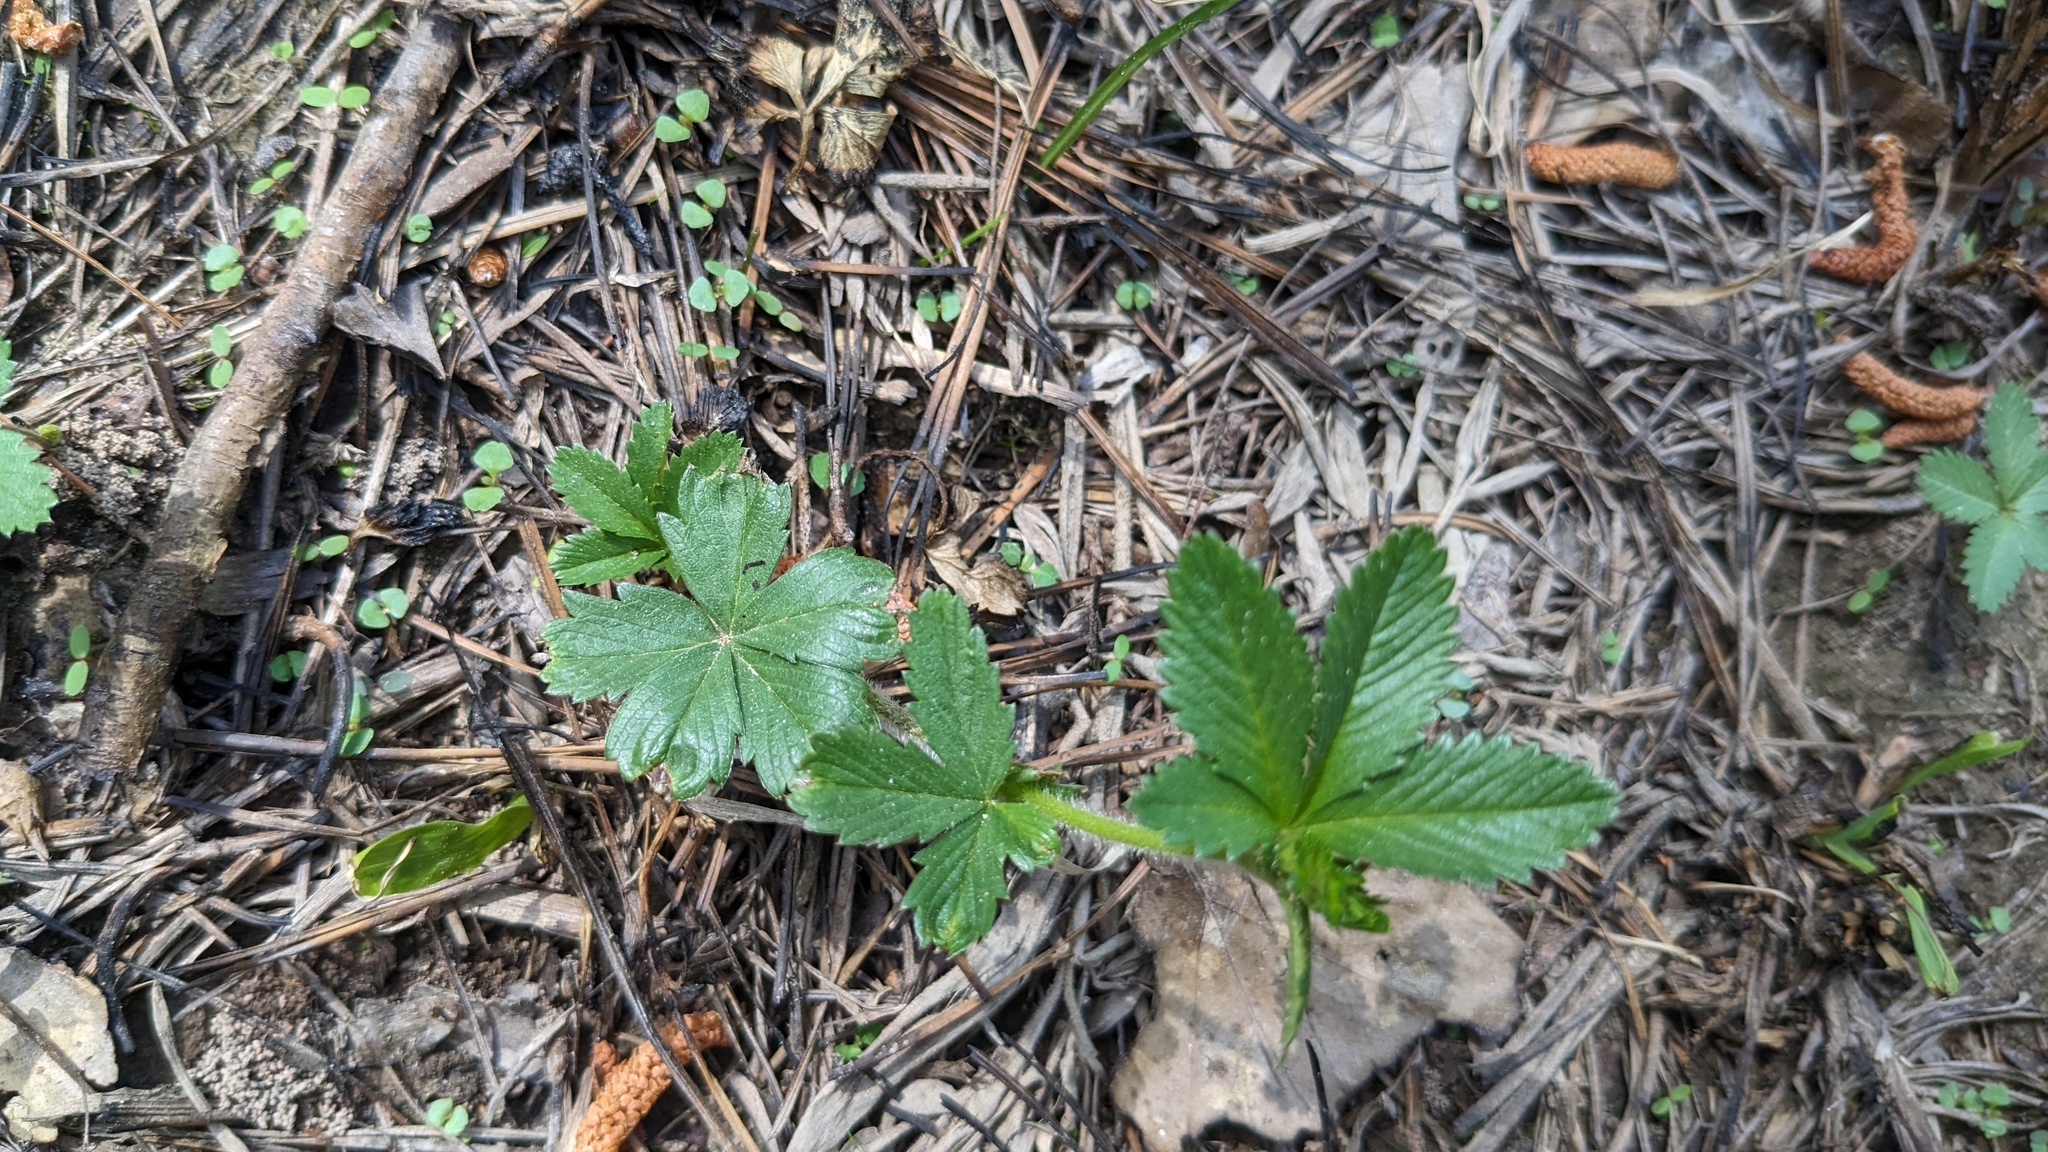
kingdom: Plantae
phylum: Tracheophyta
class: Magnoliopsida
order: Rosales
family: Rosaceae
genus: Potentilla
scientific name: Potentilla simplex
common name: Old field cinquefoil
